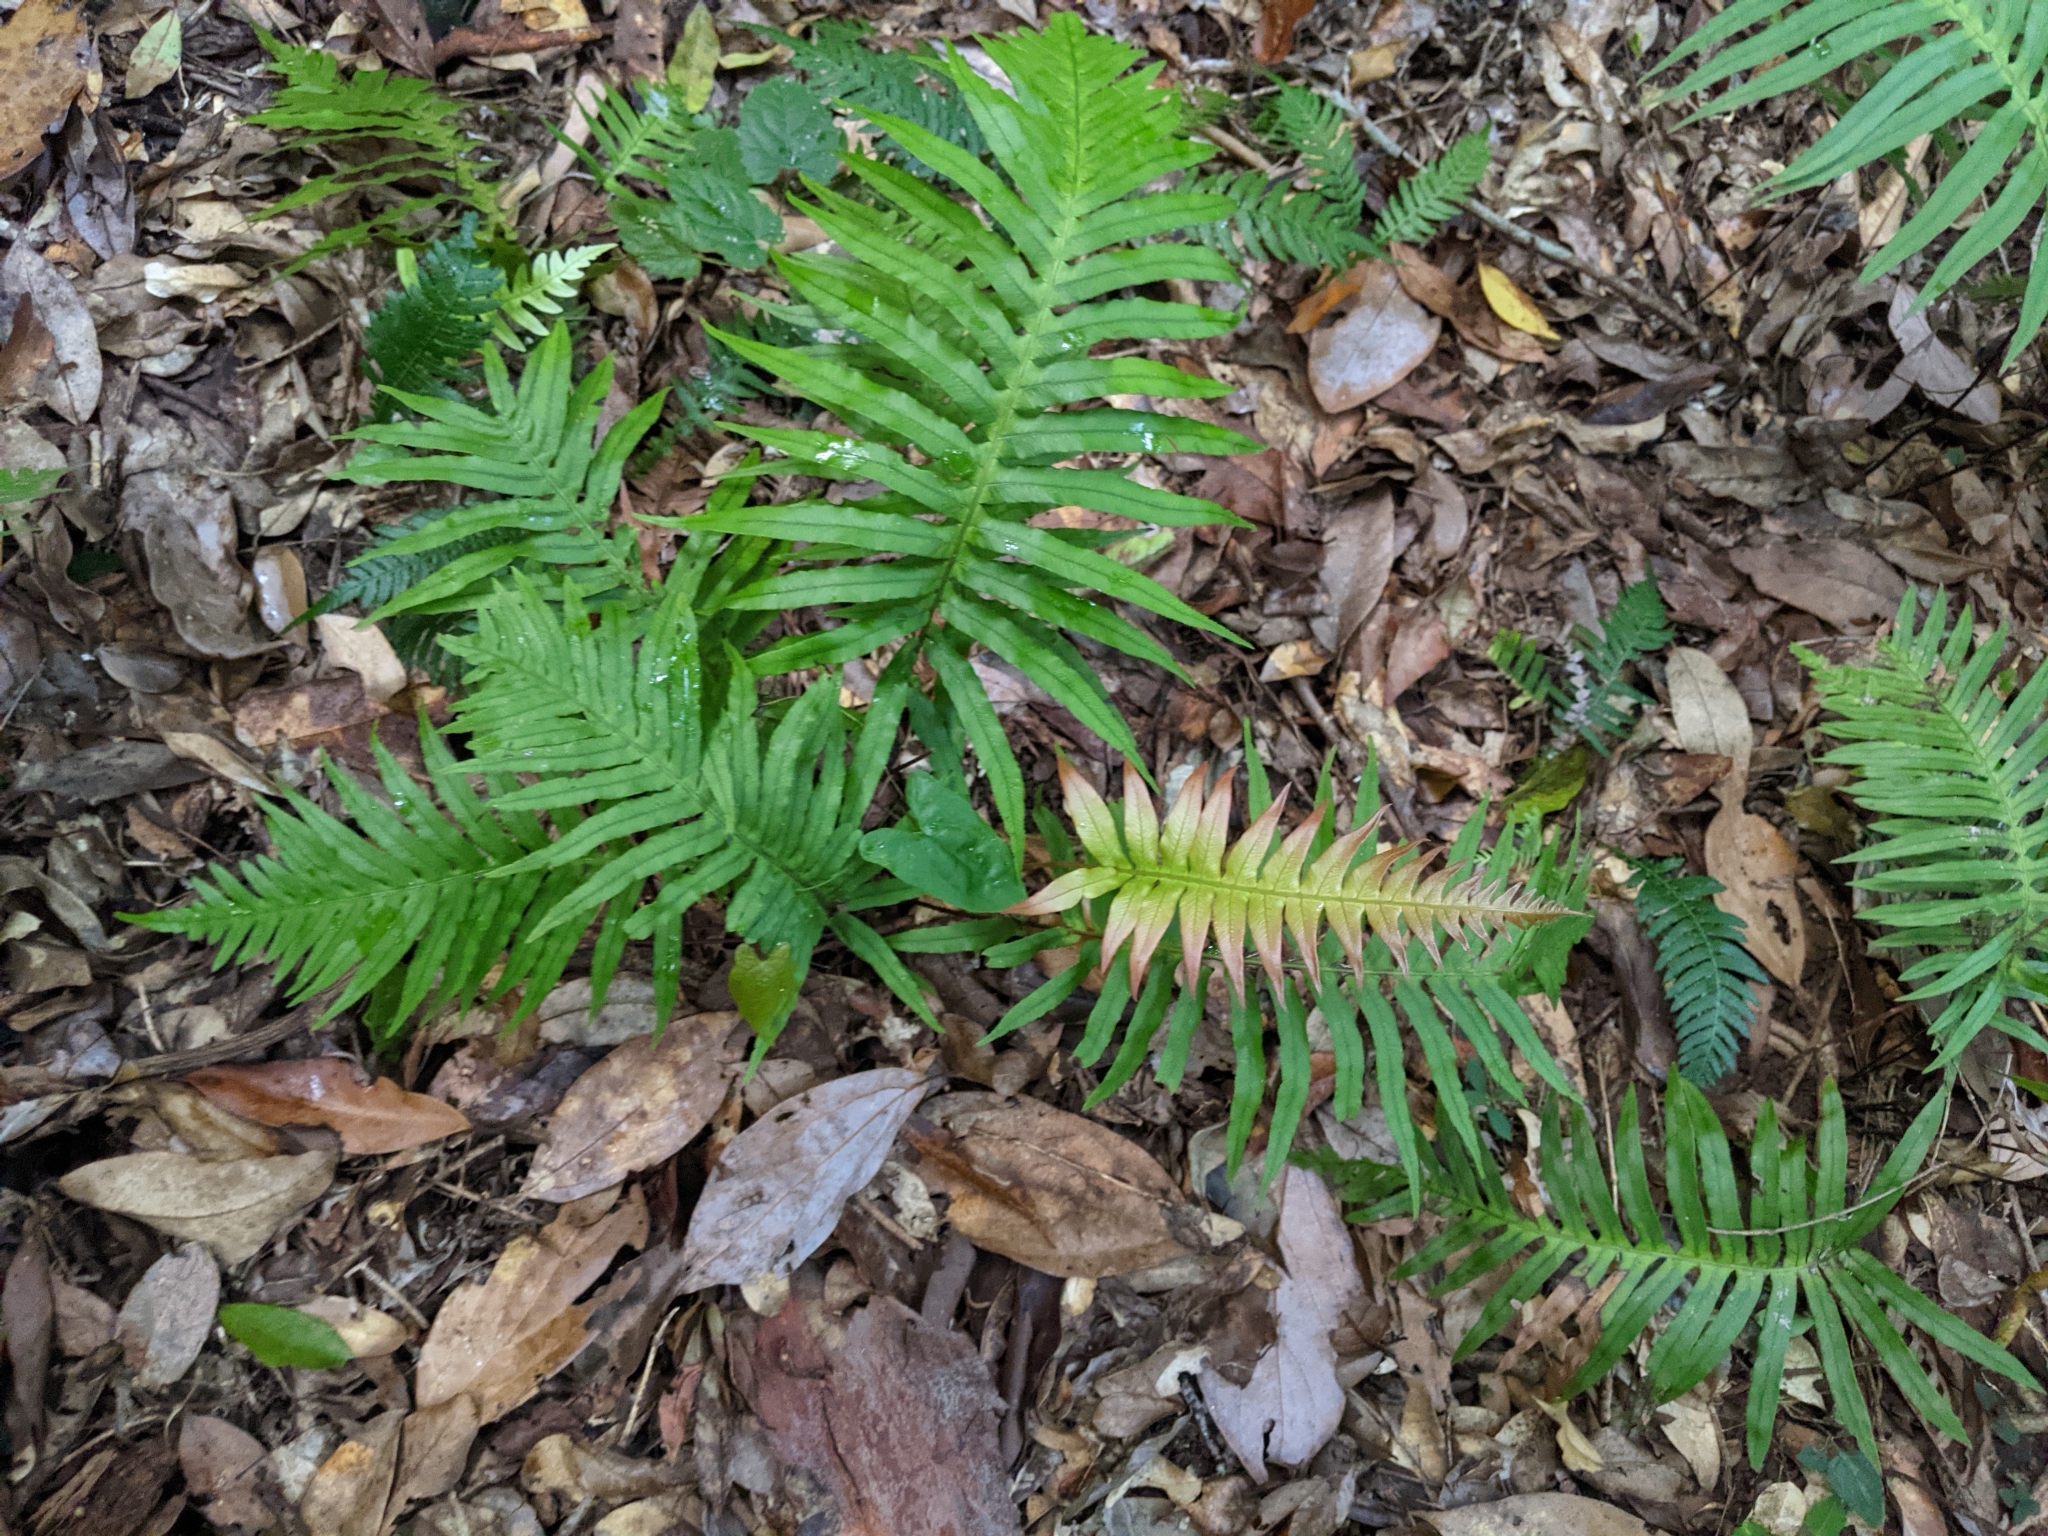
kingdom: Plantae
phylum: Tracheophyta
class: Polypodiopsida
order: Polypodiales
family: Blechnaceae
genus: Oceaniopteris
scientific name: Oceaniopteris cartilaginea
